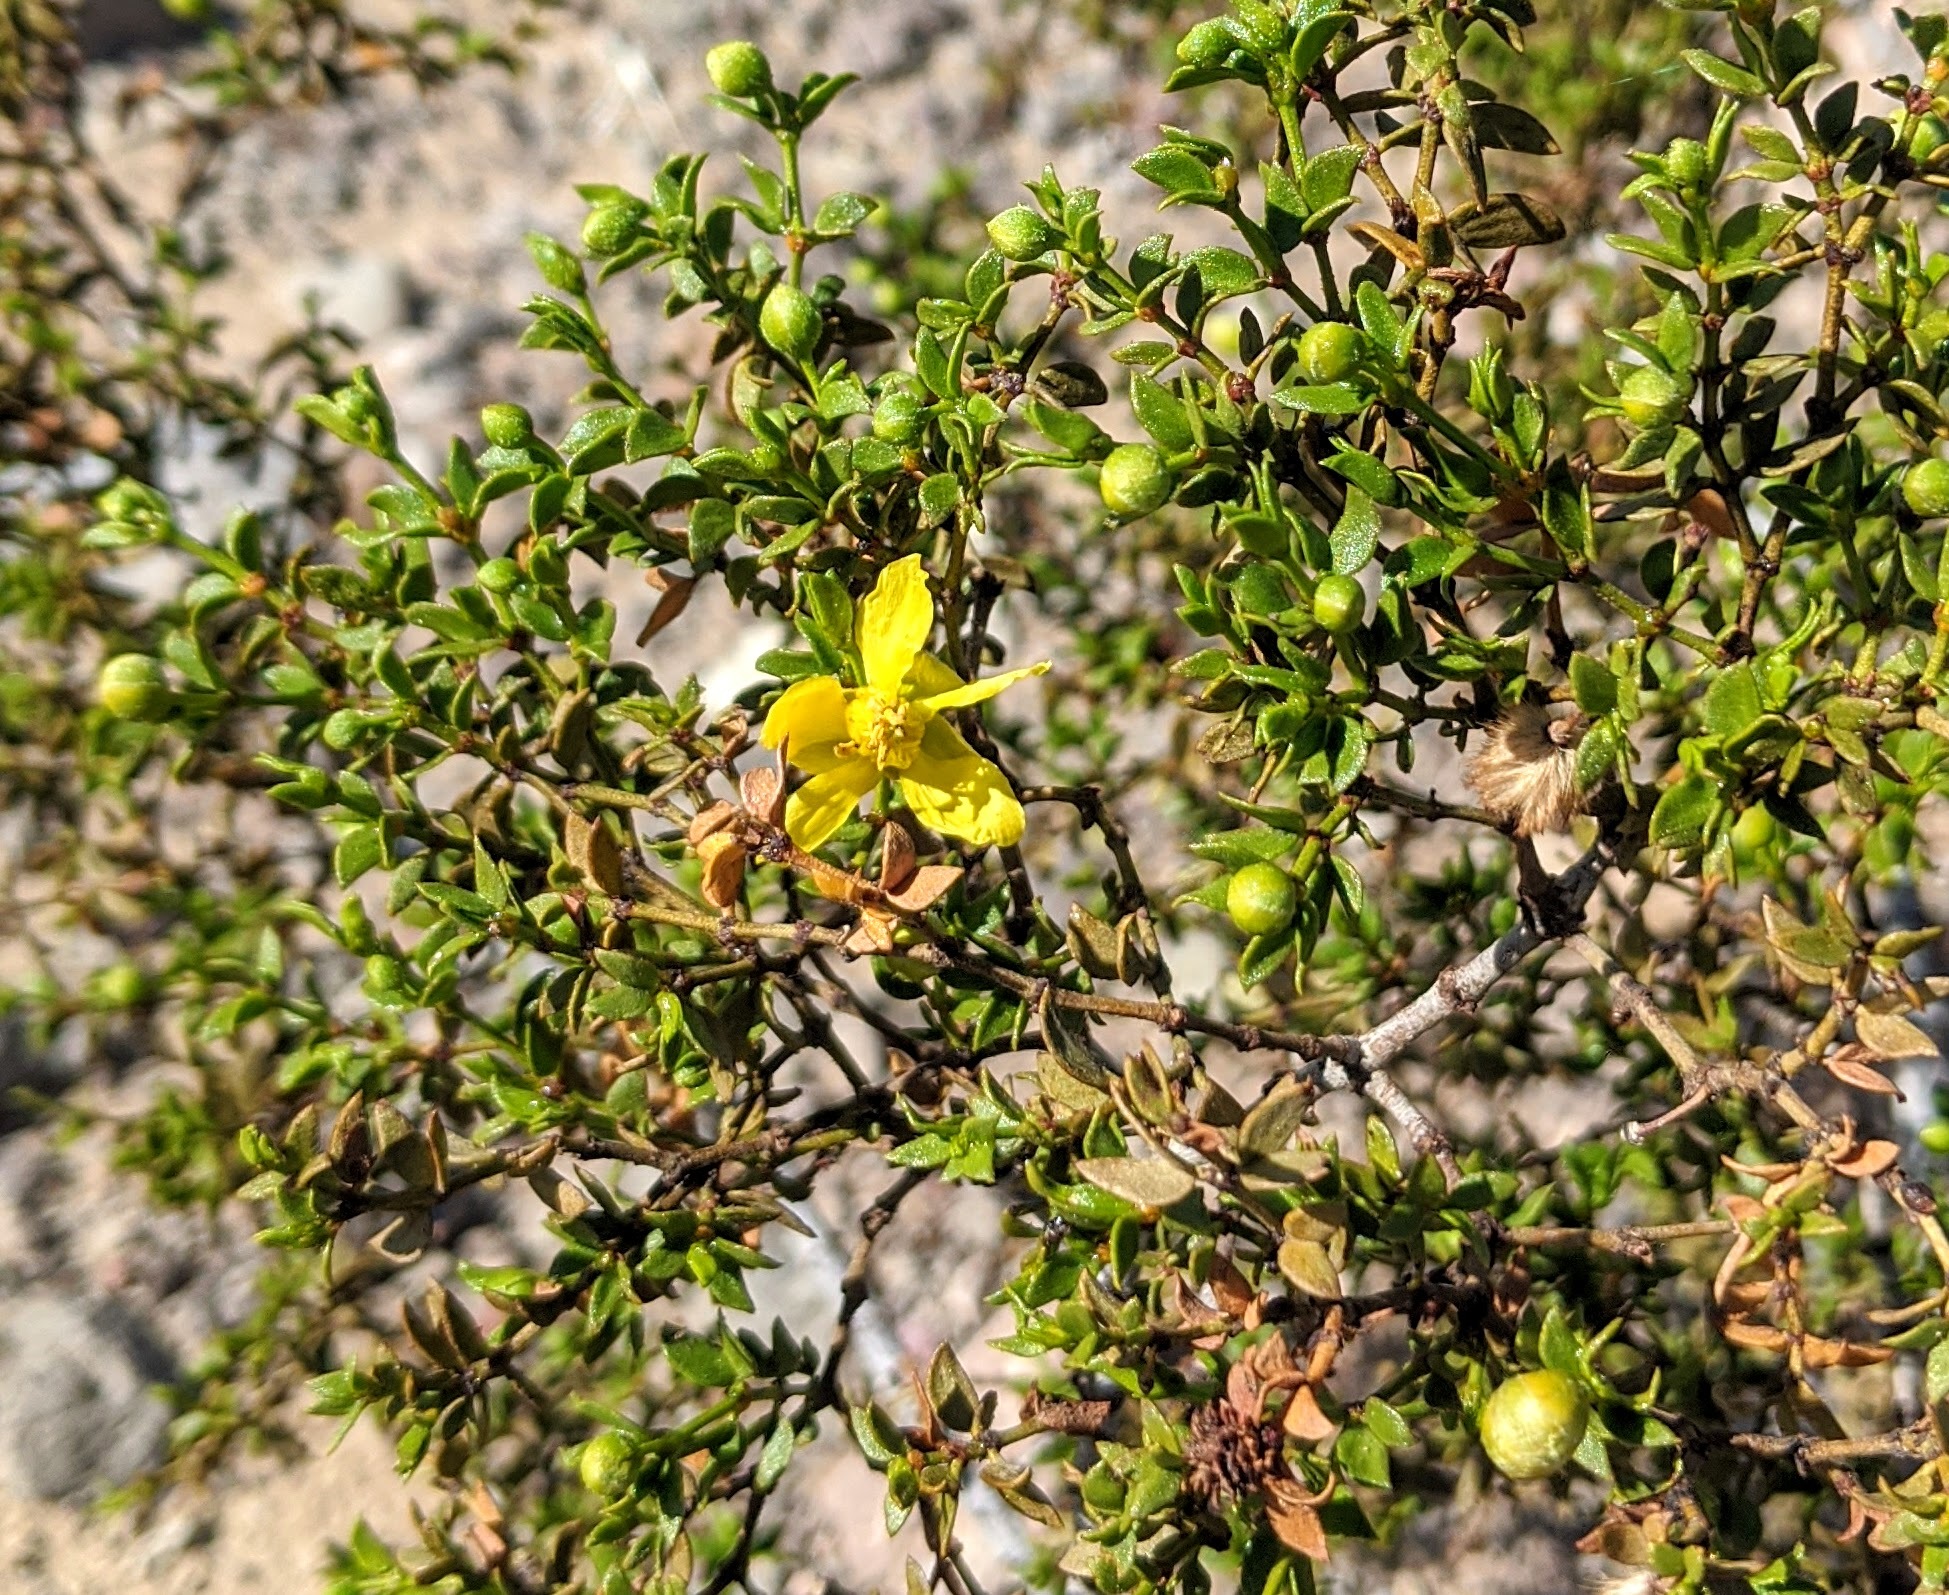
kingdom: Plantae
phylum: Tracheophyta
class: Magnoliopsida
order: Zygophyllales
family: Zygophyllaceae
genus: Larrea
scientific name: Larrea tridentata
